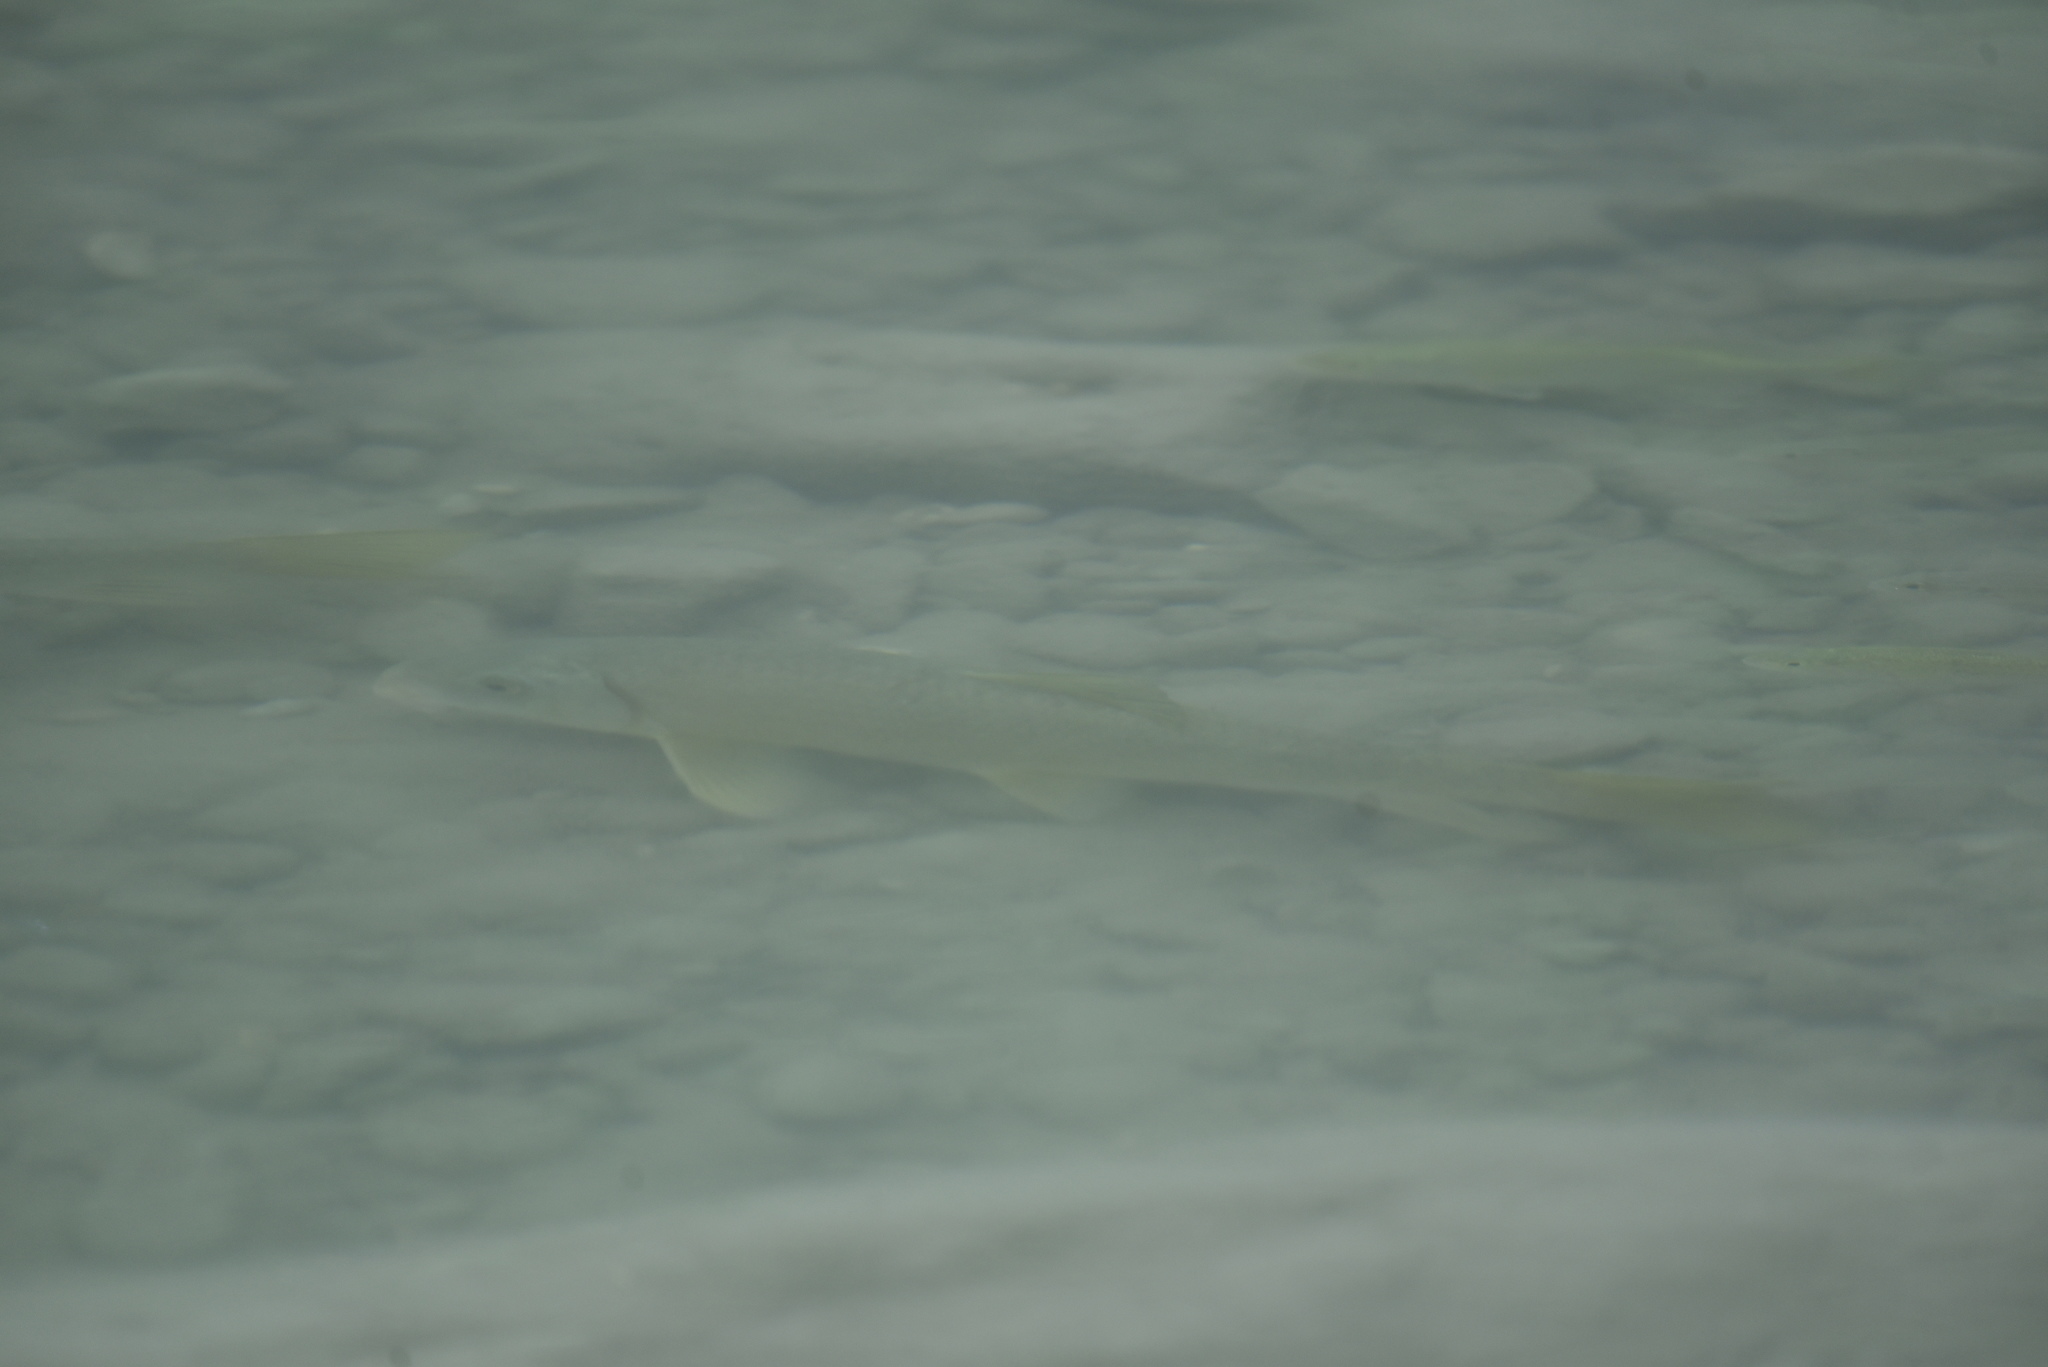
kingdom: Animalia
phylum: Chordata
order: Cypriniformes
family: Catostomidae
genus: Moxostoma
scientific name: Moxostoma congestum
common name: Gray redhorse
